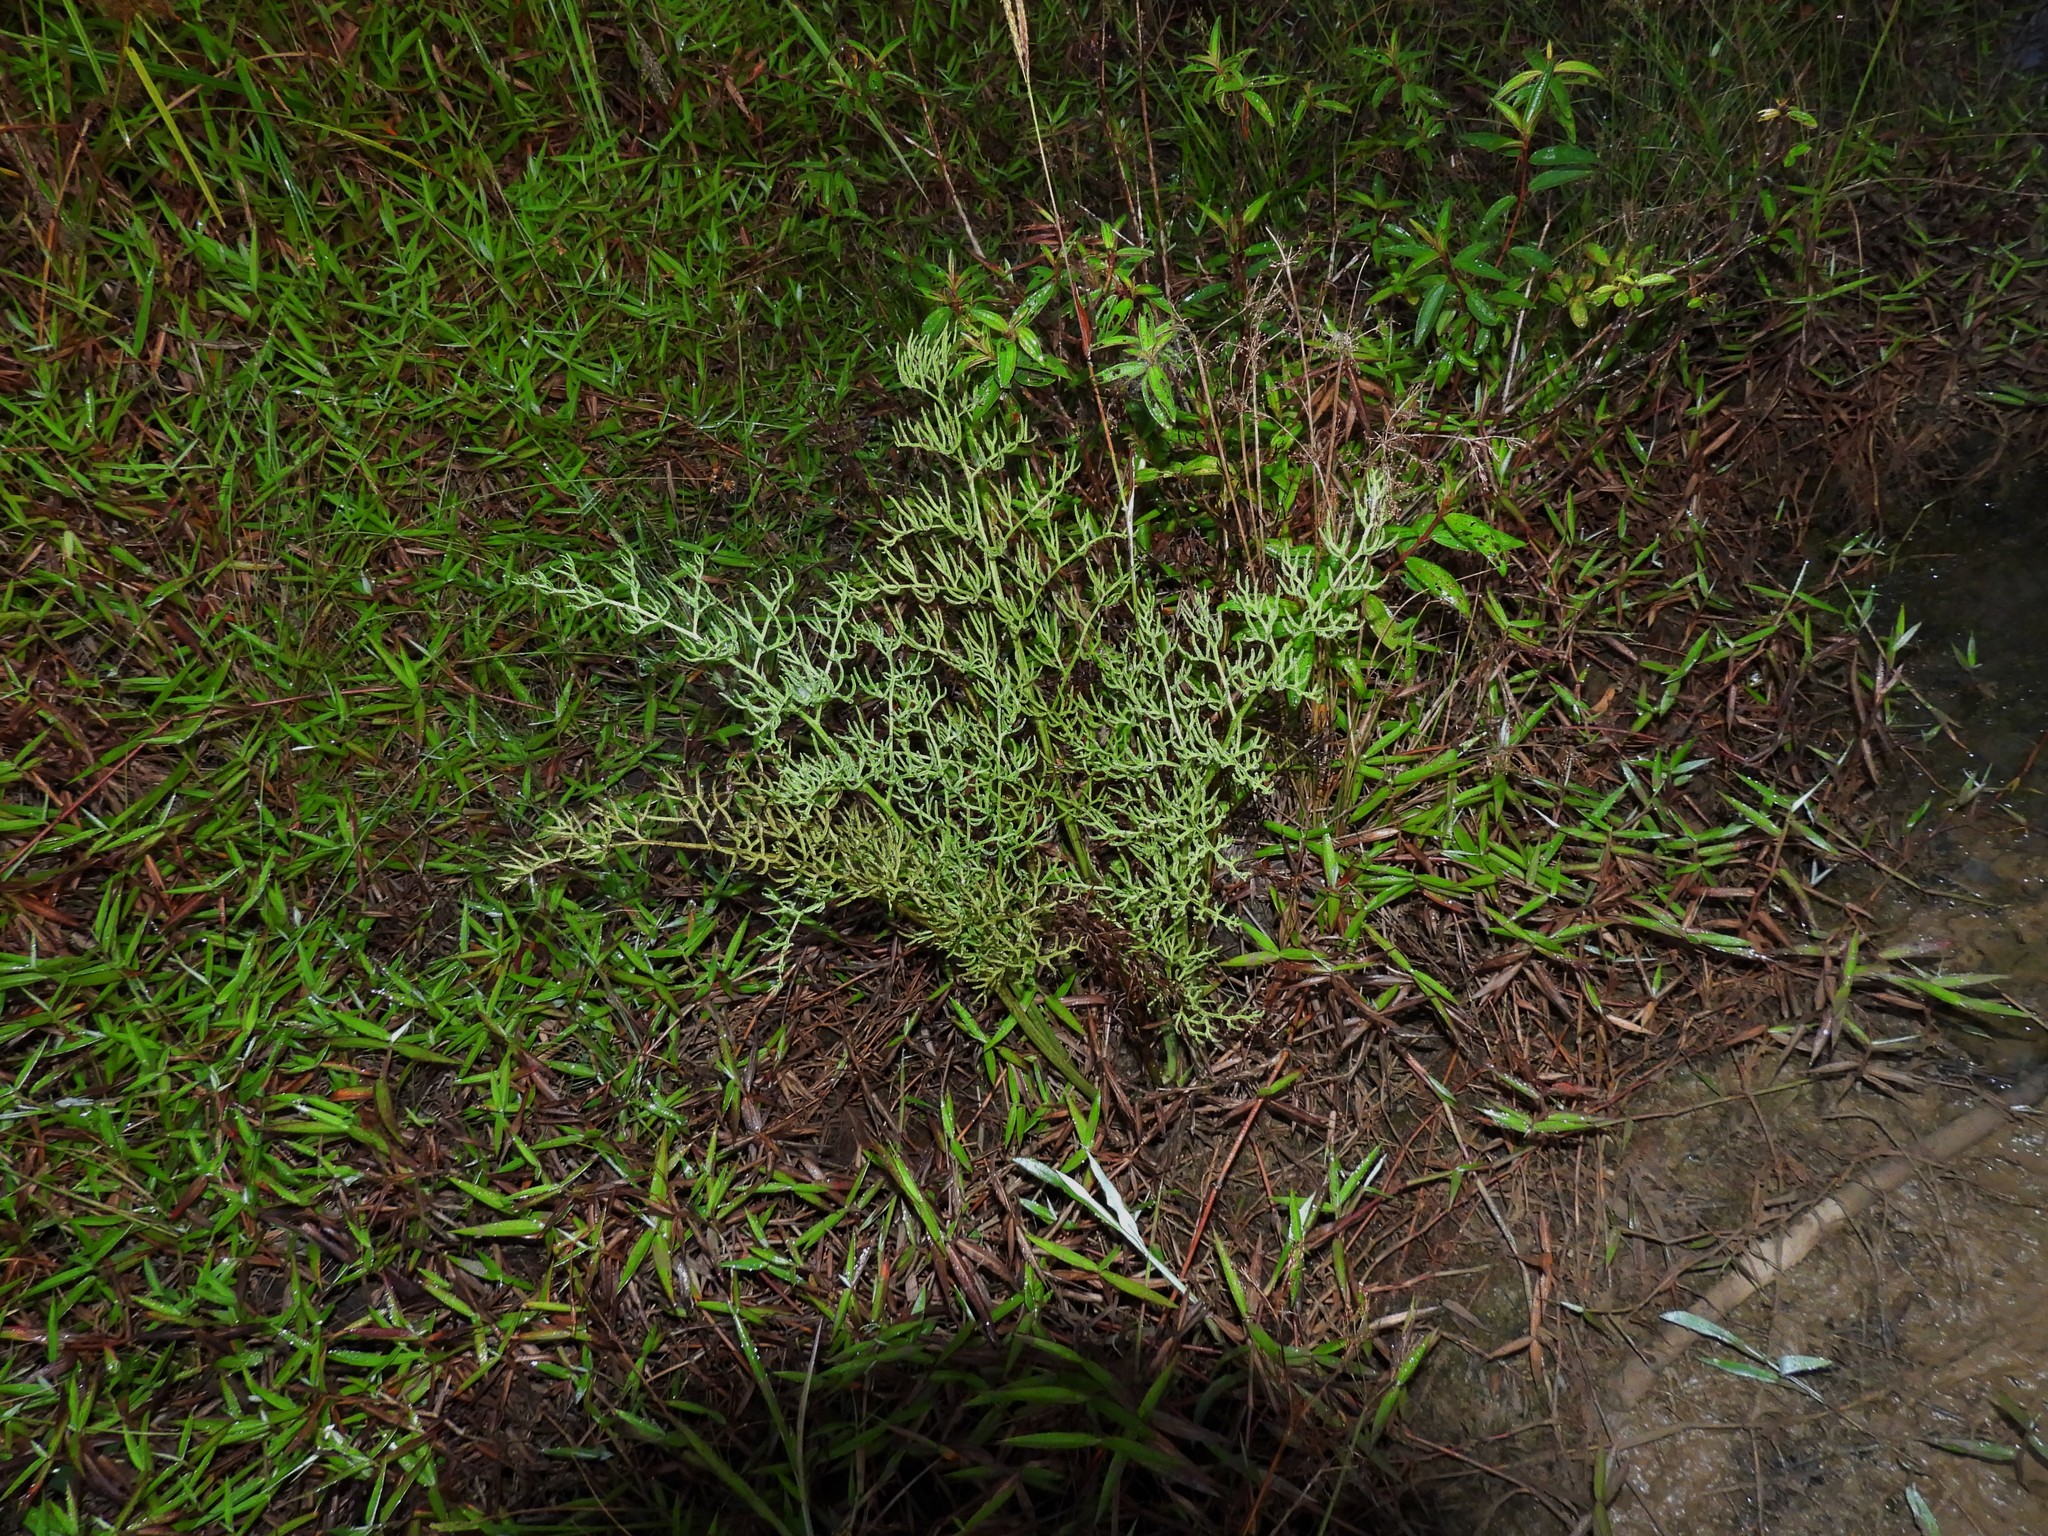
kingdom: Plantae
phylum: Tracheophyta
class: Polypodiopsida
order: Polypodiales
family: Pteridaceae
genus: Ceratopteris
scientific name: Ceratopteris thalictroides
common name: Water fern
